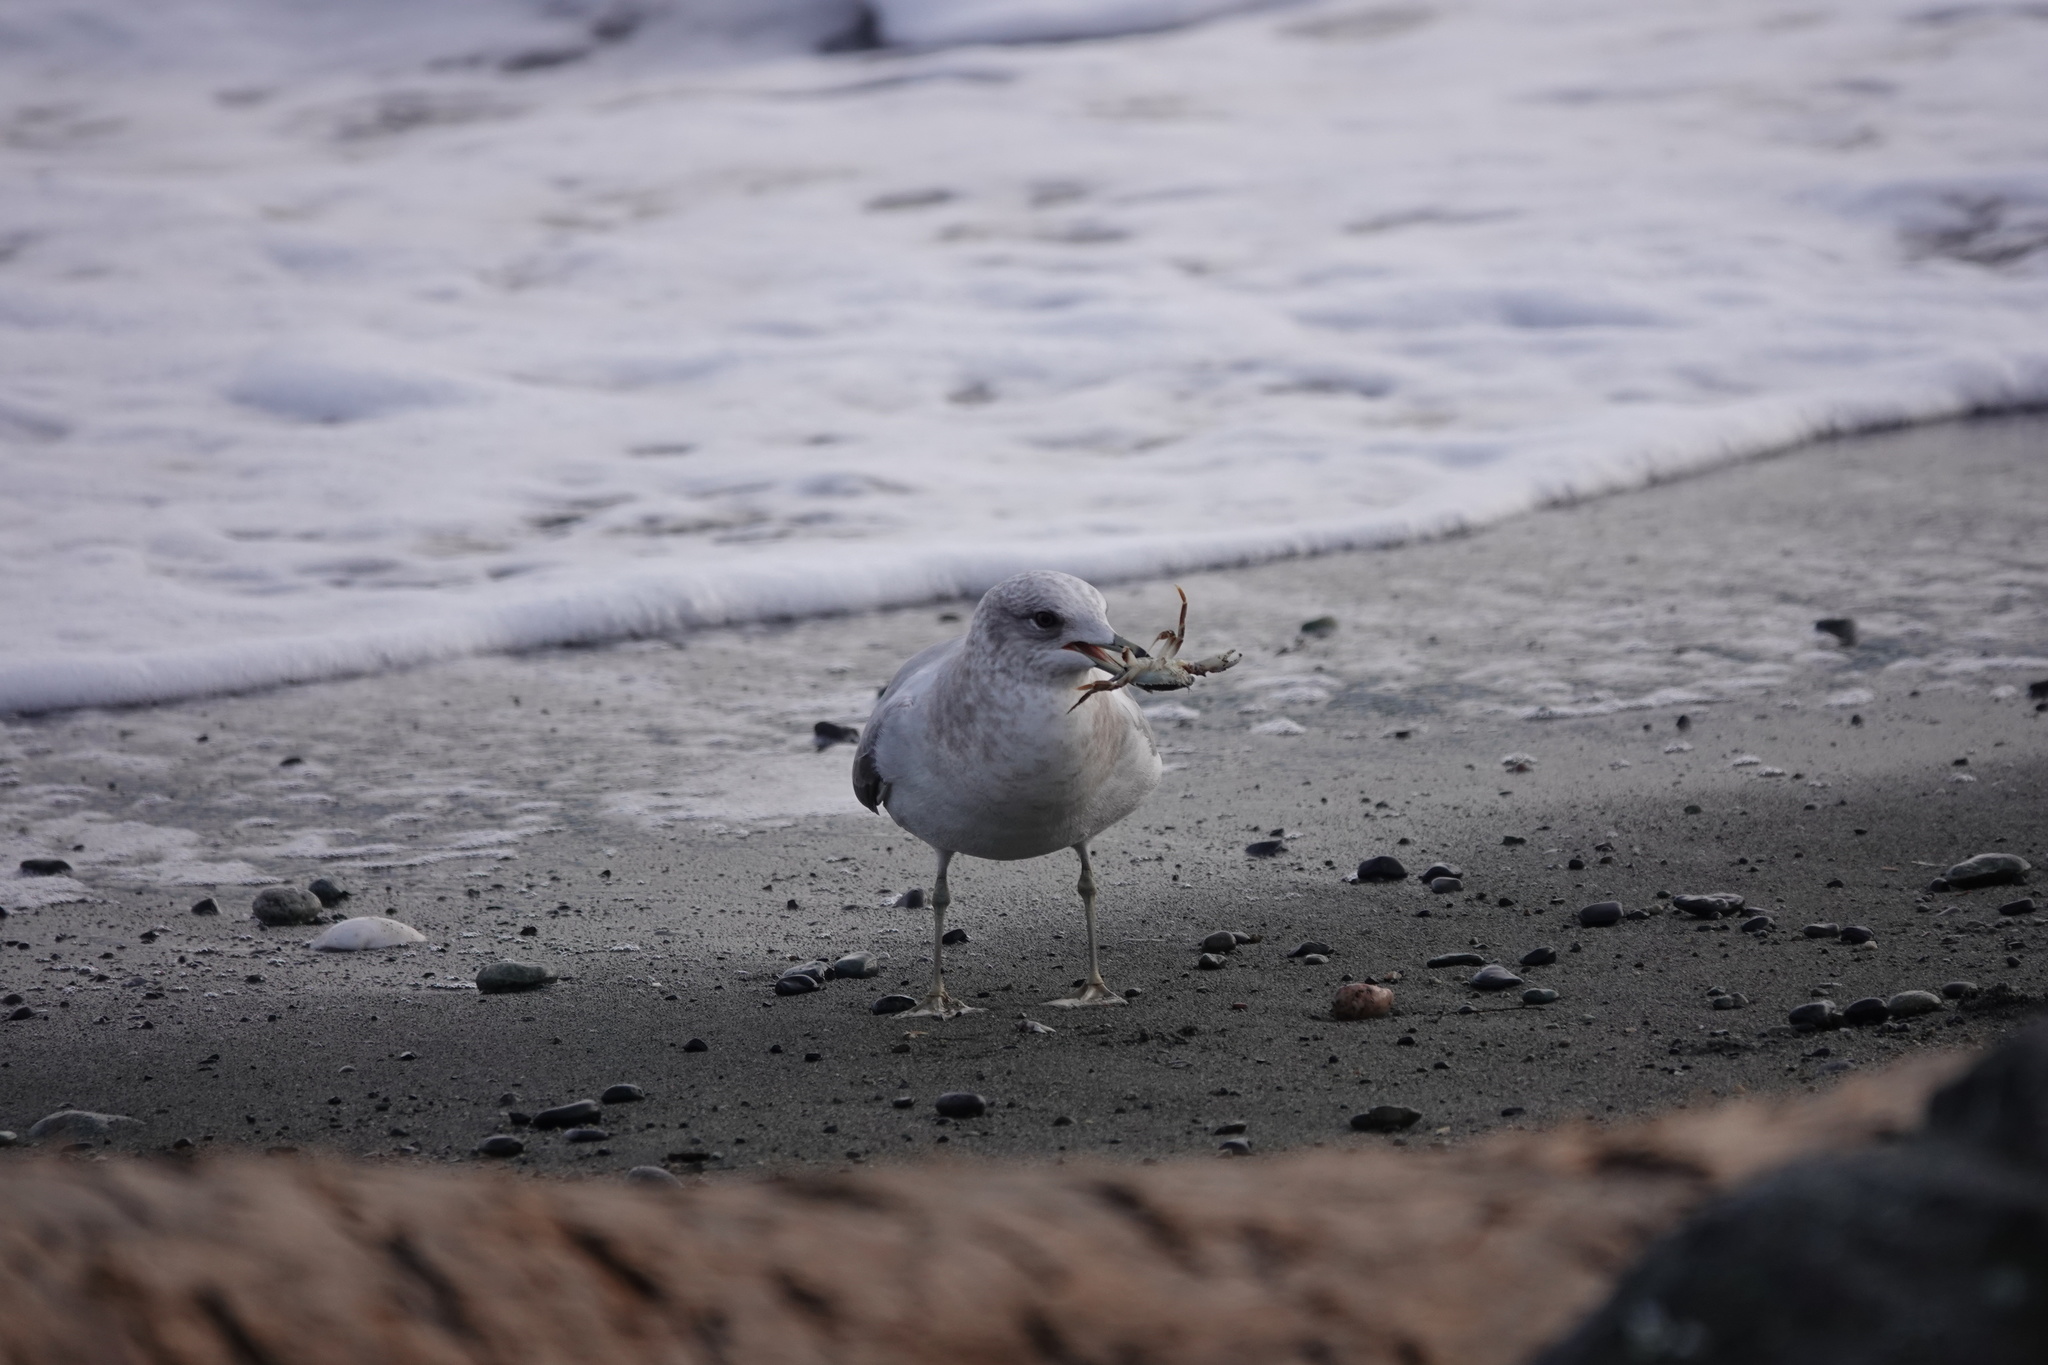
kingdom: Animalia
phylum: Chordata
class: Aves
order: Charadriiformes
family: Laridae
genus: Larus
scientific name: Larus brachyrhynchus
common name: Short-billed gull
